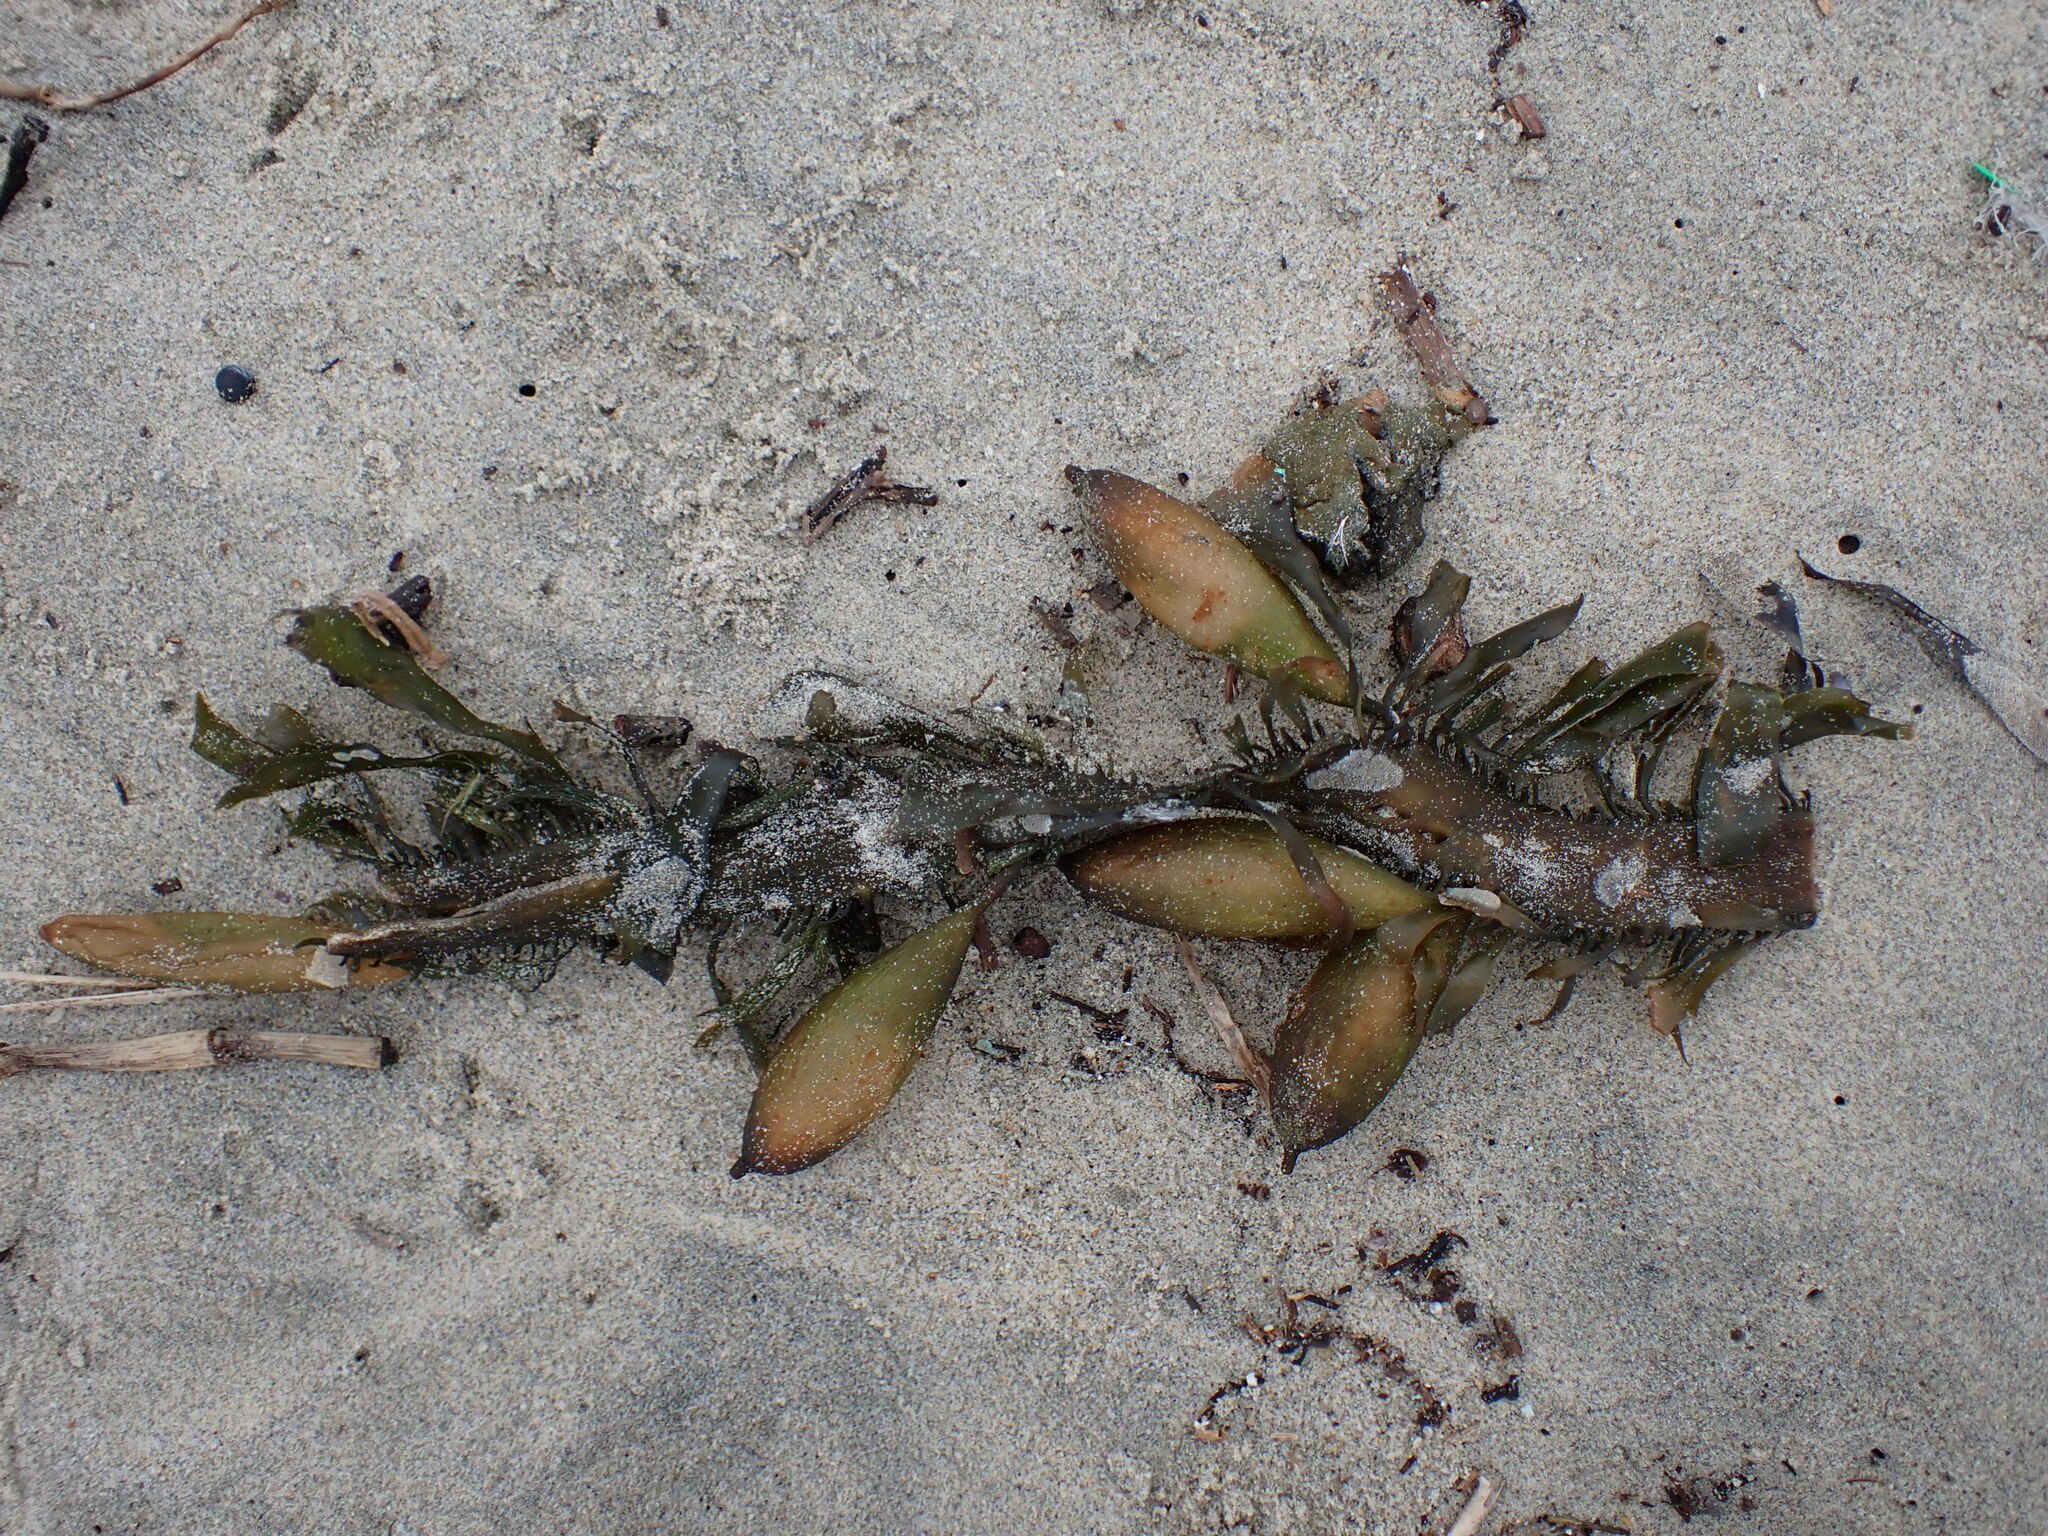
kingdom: Chromista
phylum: Ochrophyta
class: Phaeophyceae
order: Laminariales
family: Laminariaceae
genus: Macrocystis
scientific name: Macrocystis pyrifera
